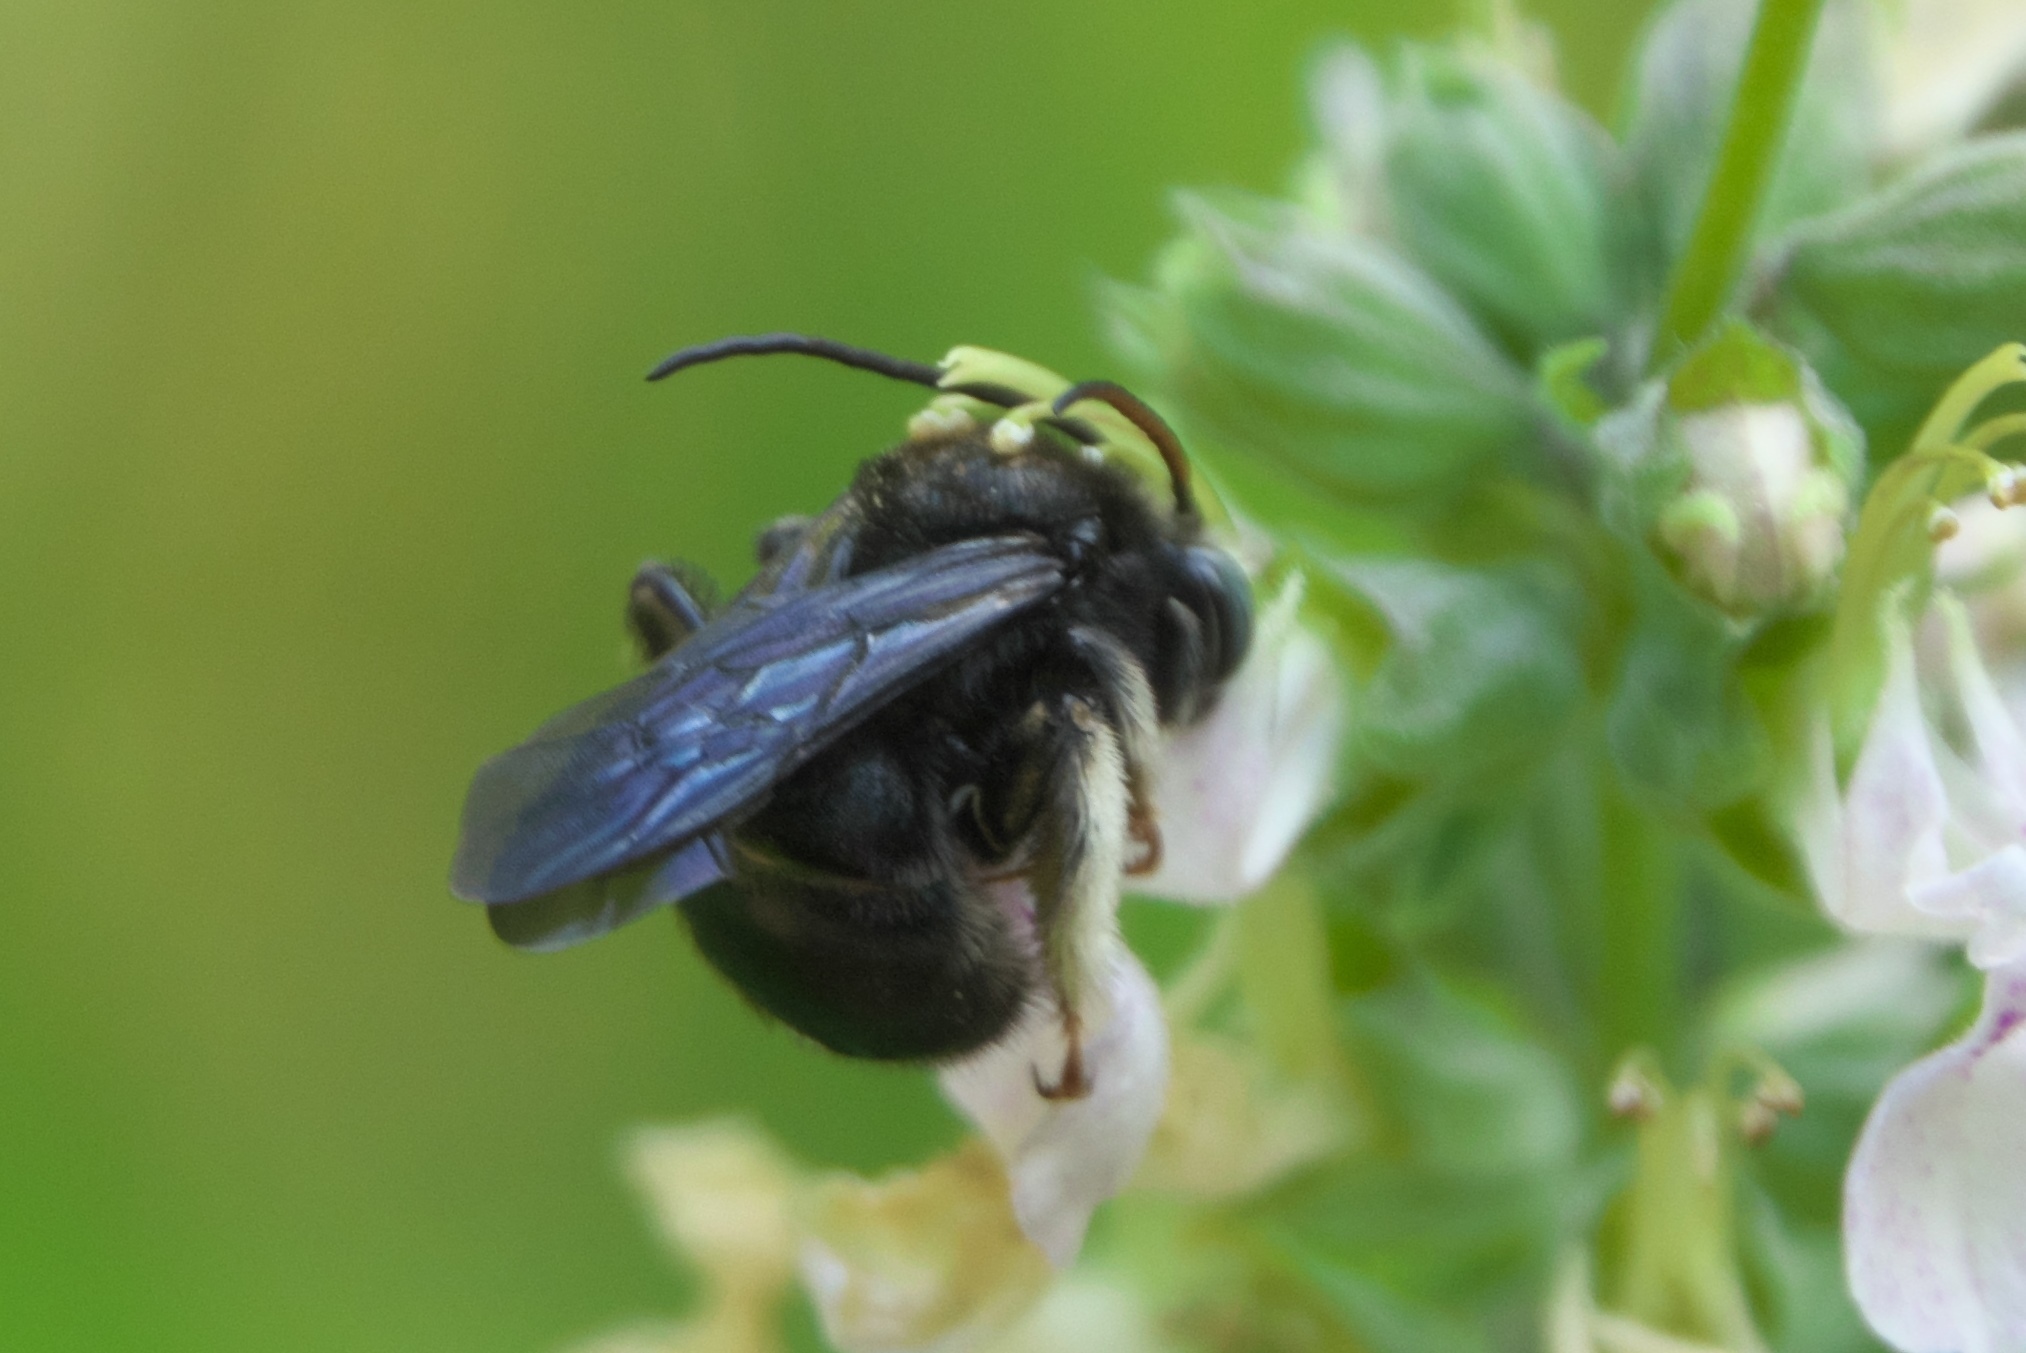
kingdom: Animalia
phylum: Arthropoda
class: Insecta
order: Hymenoptera
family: Apidae
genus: Melissodes
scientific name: Melissodes bimaculatus
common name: Two-spotted long-horned bee
